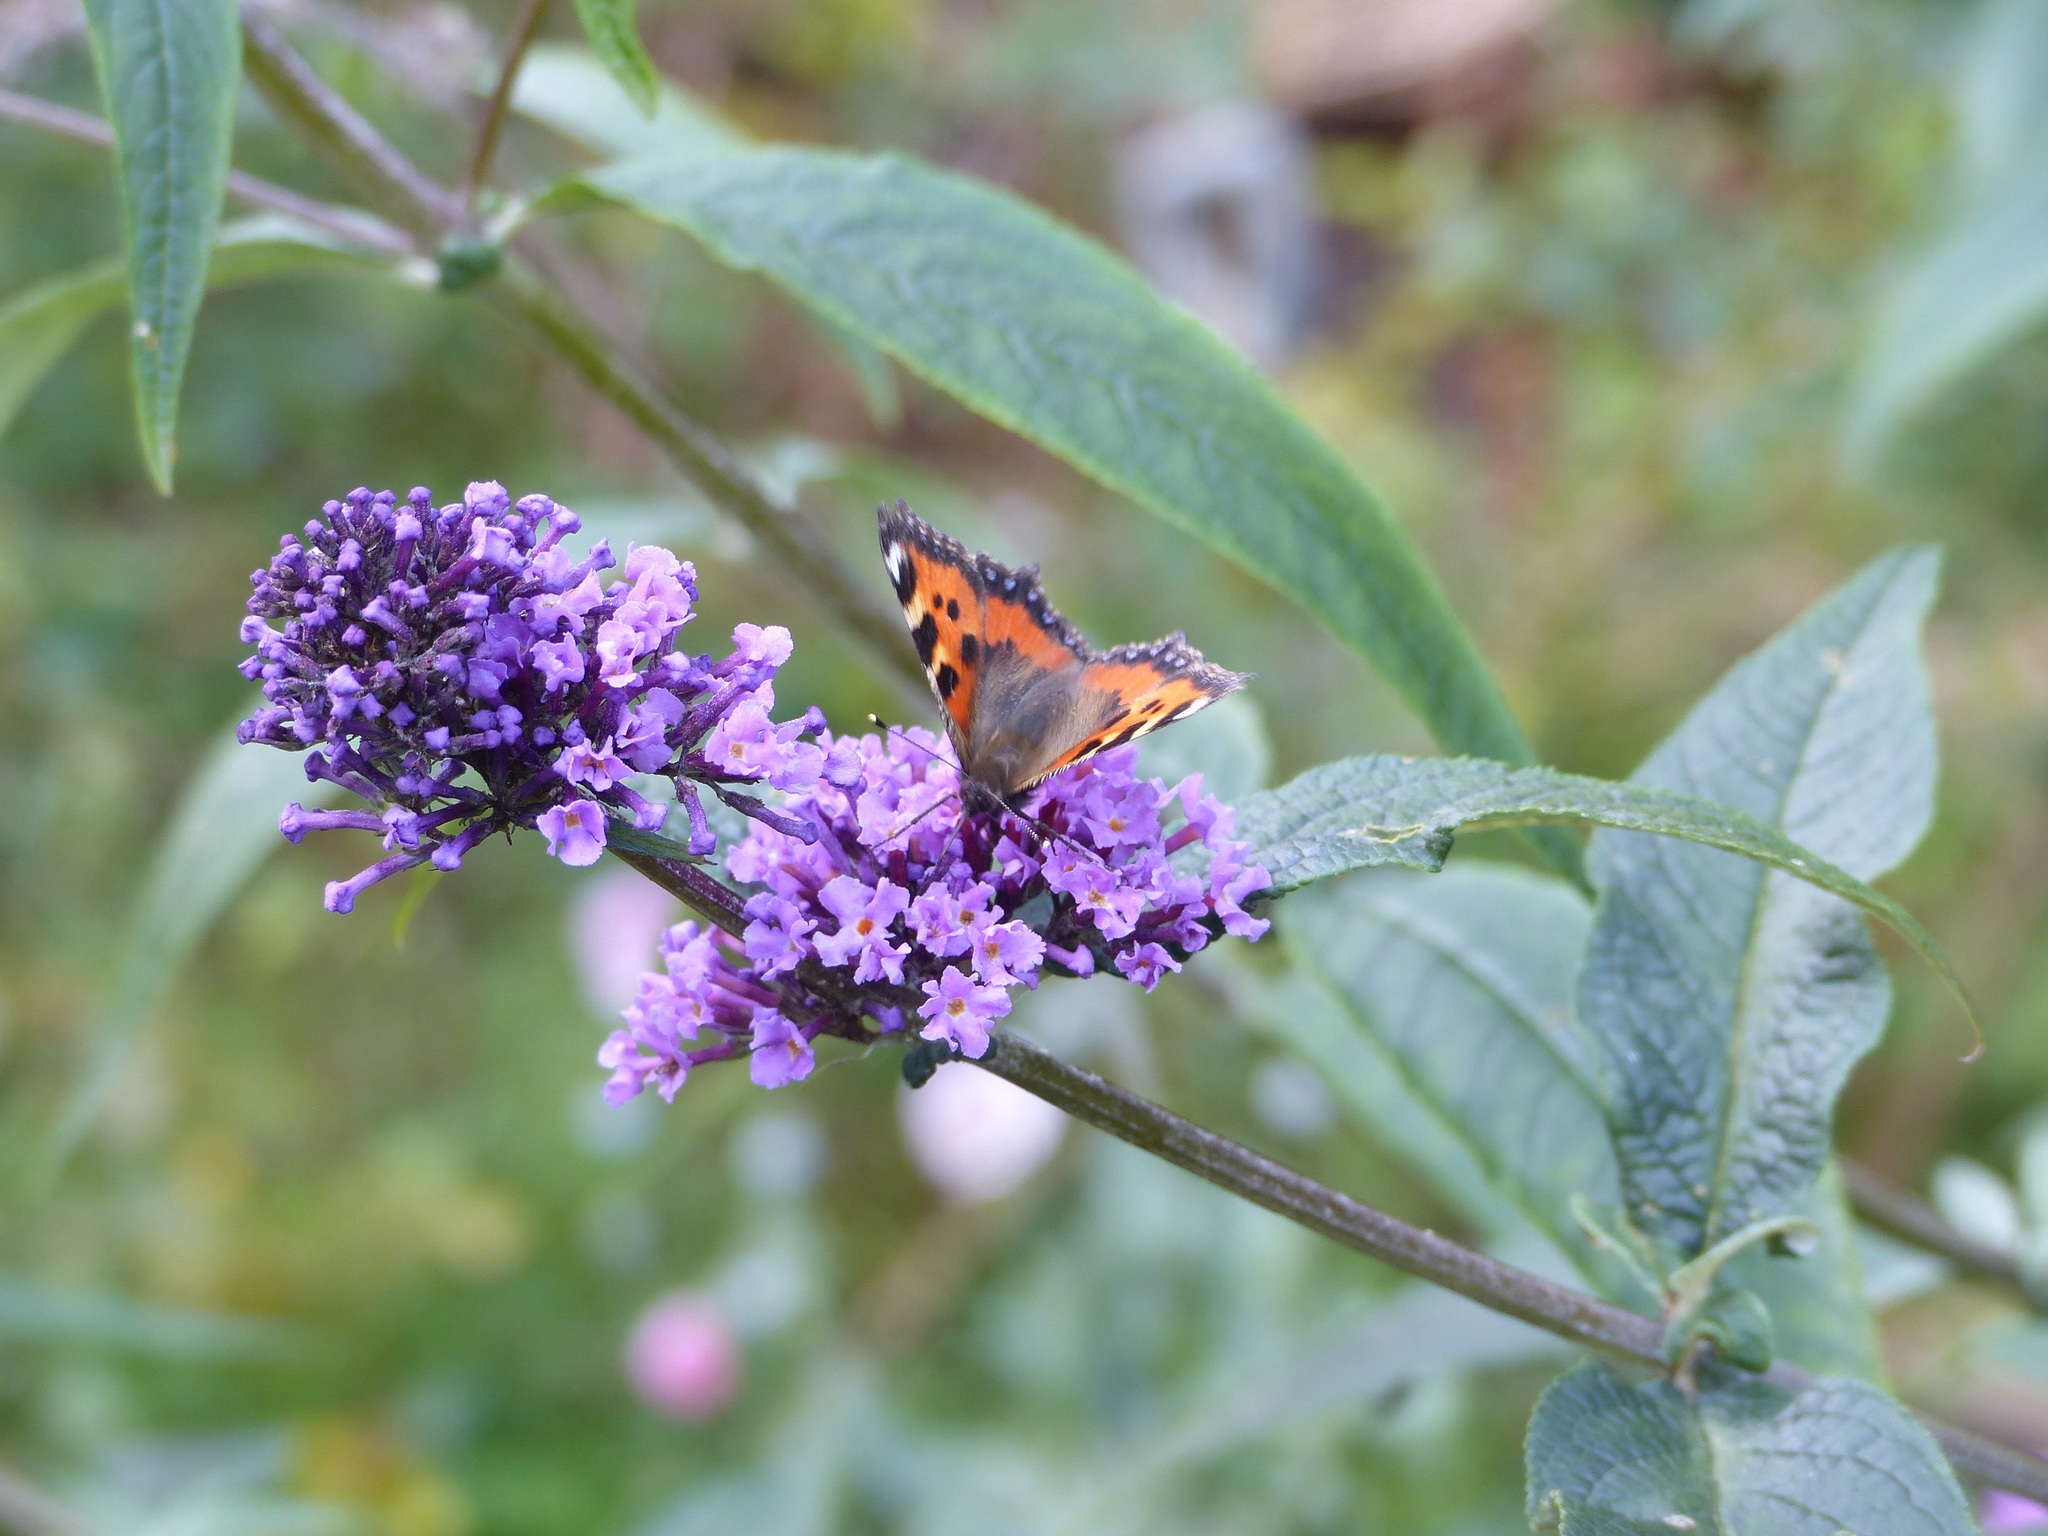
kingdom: Animalia
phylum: Arthropoda
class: Insecta
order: Lepidoptera
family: Nymphalidae
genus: Aglais
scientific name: Aglais urticae
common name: Small tortoiseshell
